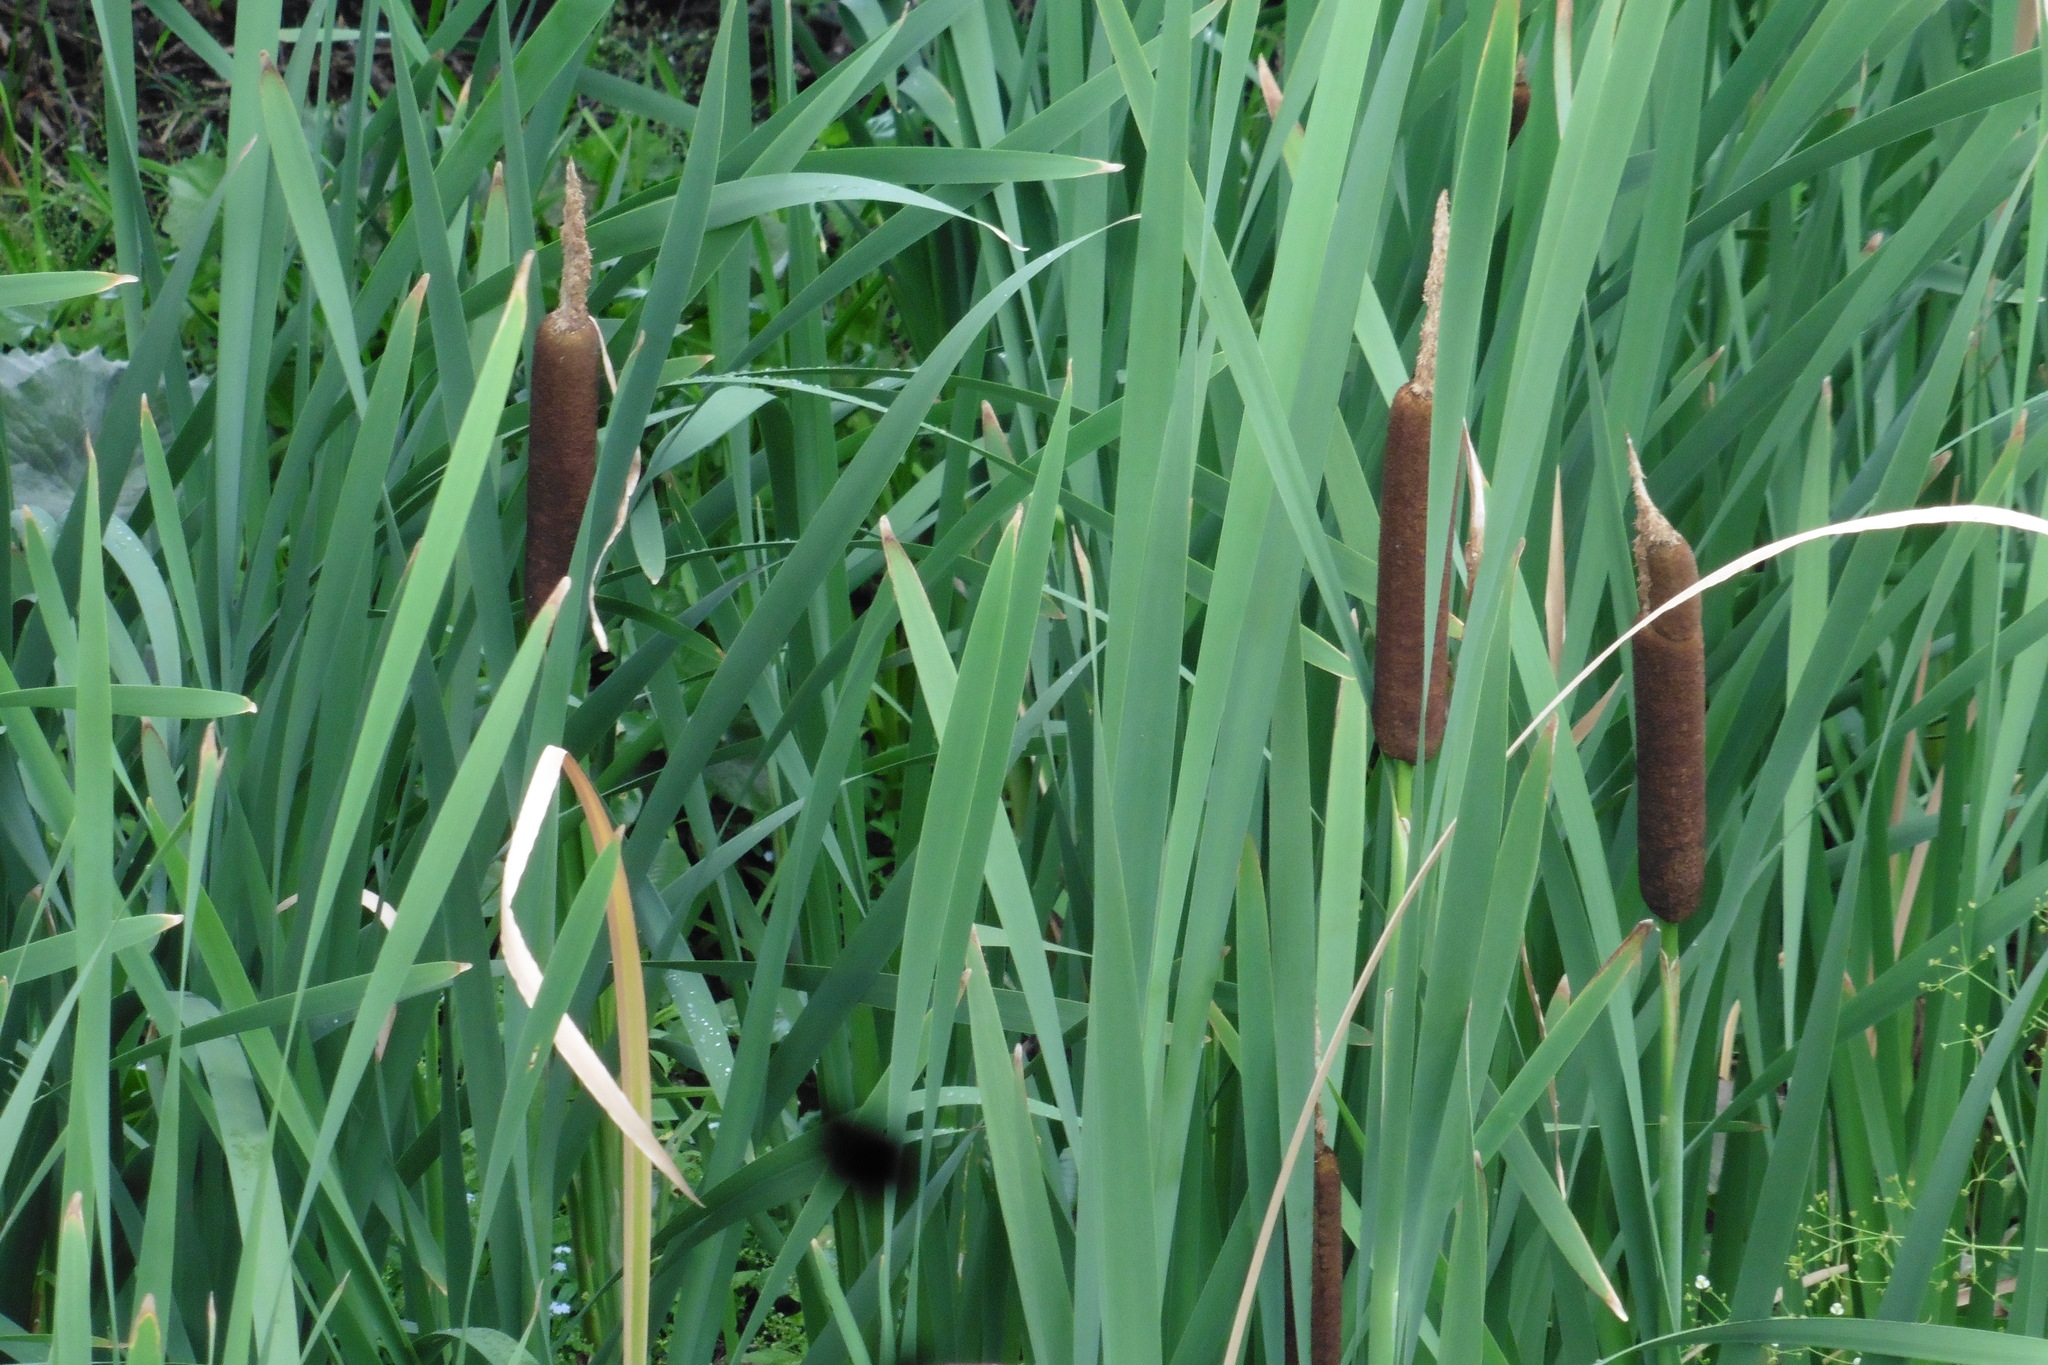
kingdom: Plantae
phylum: Tracheophyta
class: Liliopsida
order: Poales
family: Typhaceae
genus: Typha
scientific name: Typha latifolia
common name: Broadleaf cattail
